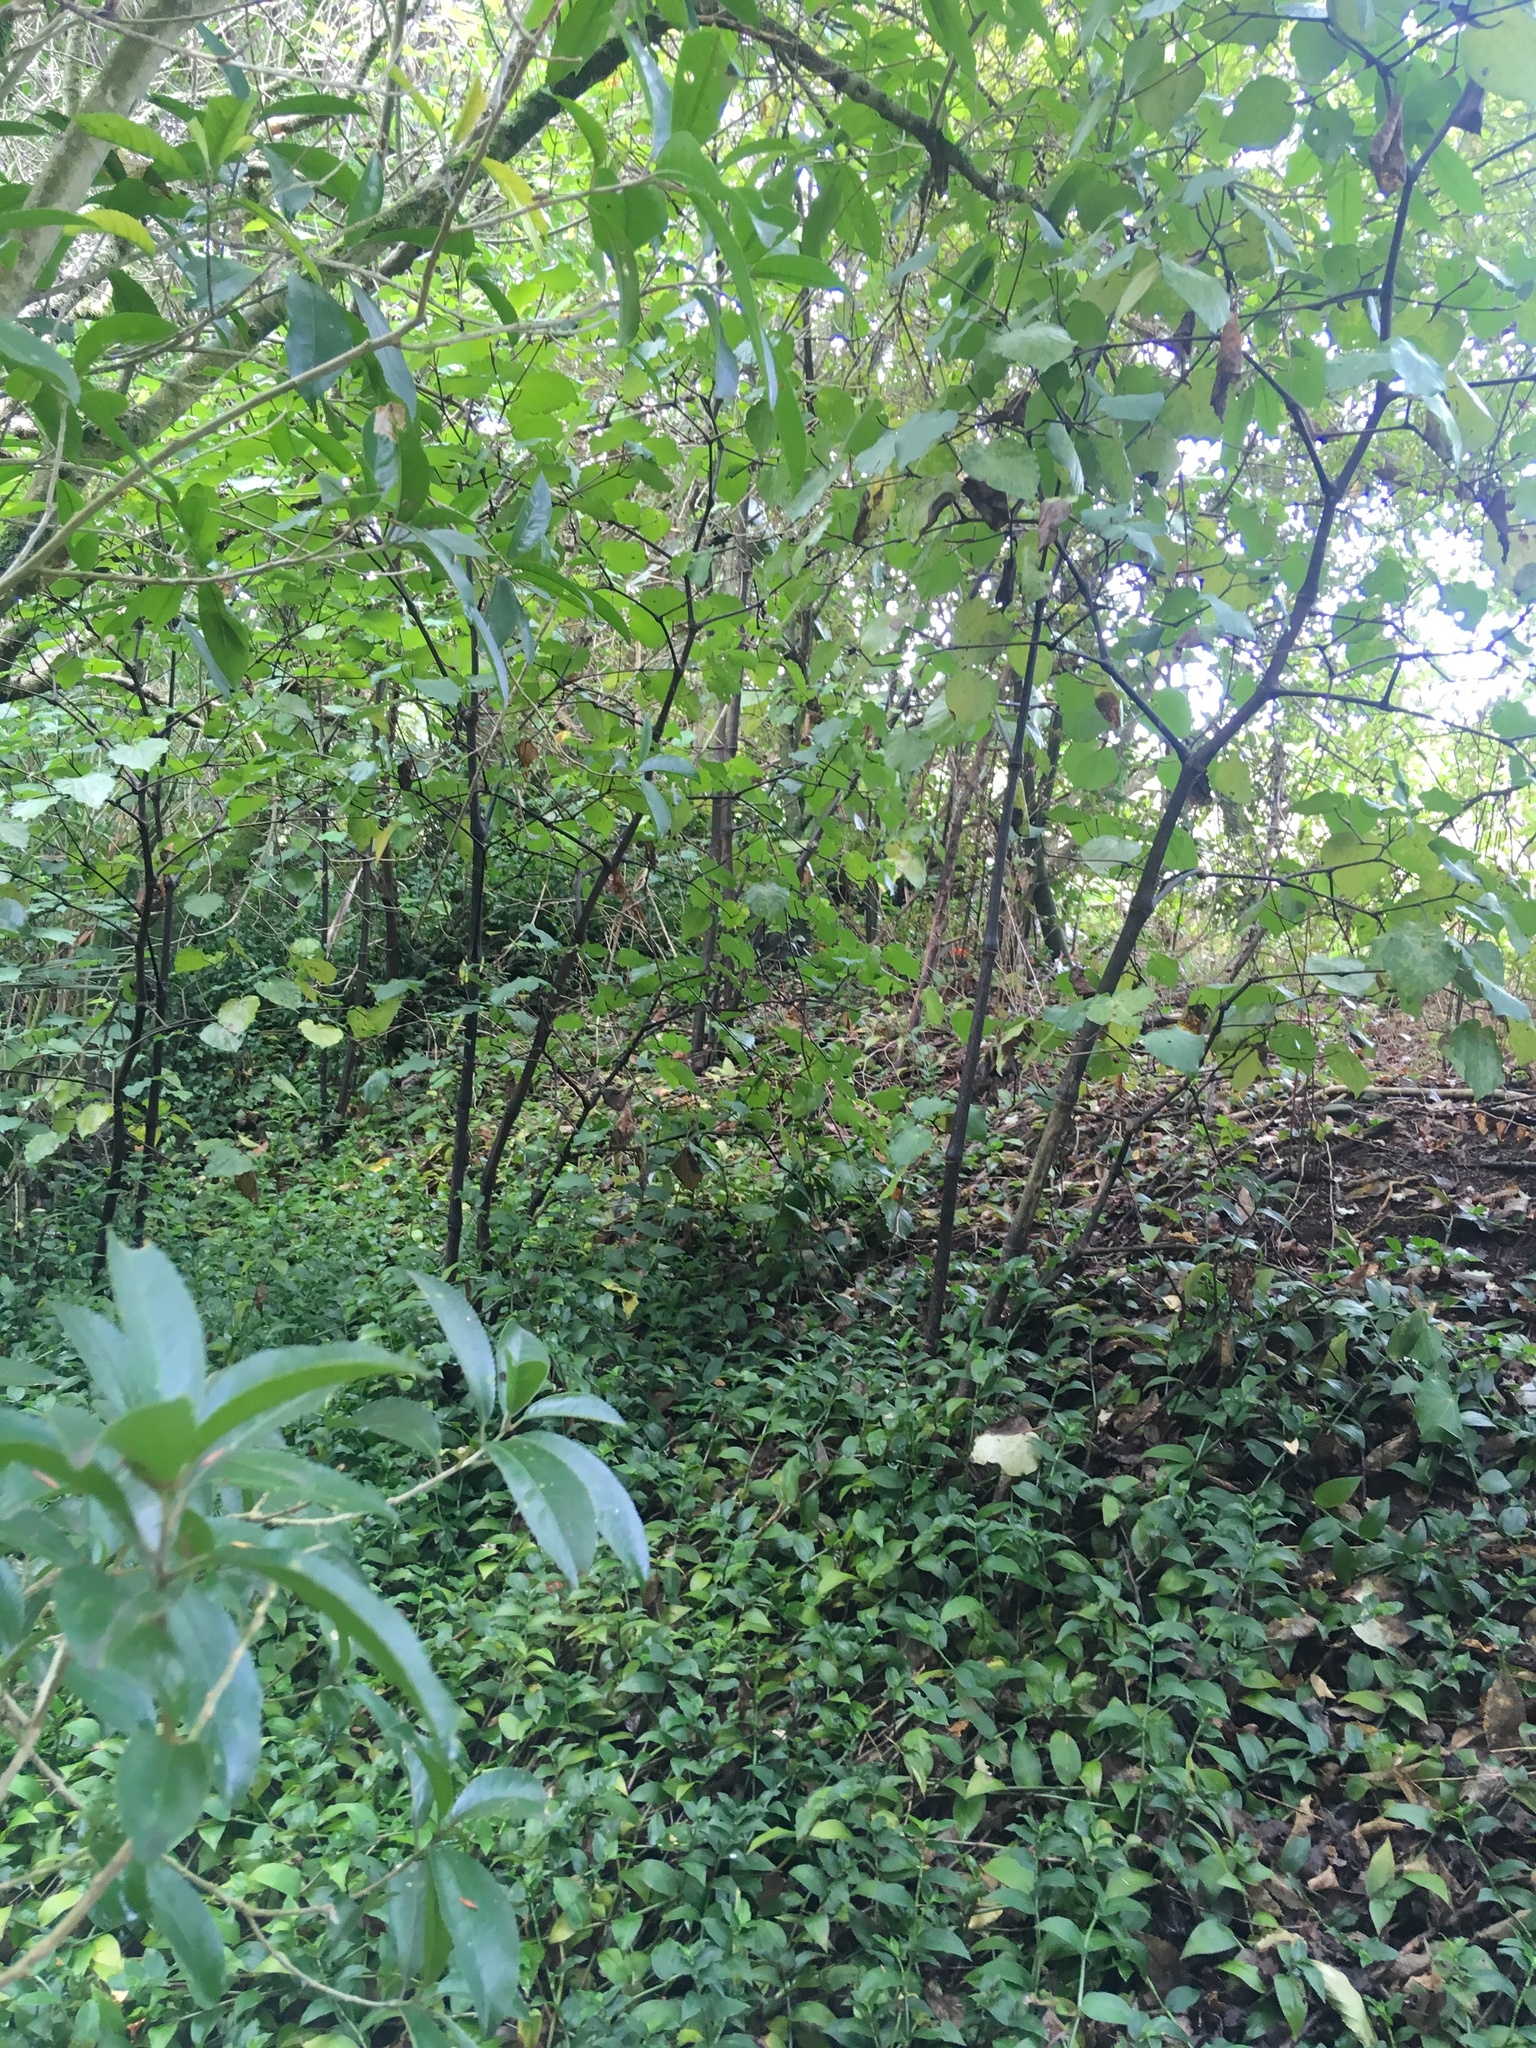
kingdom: Plantae
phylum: Tracheophyta
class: Liliopsida
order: Commelinales
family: Commelinaceae
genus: Tradescantia
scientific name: Tradescantia fluminensis
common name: Wandering-jew
